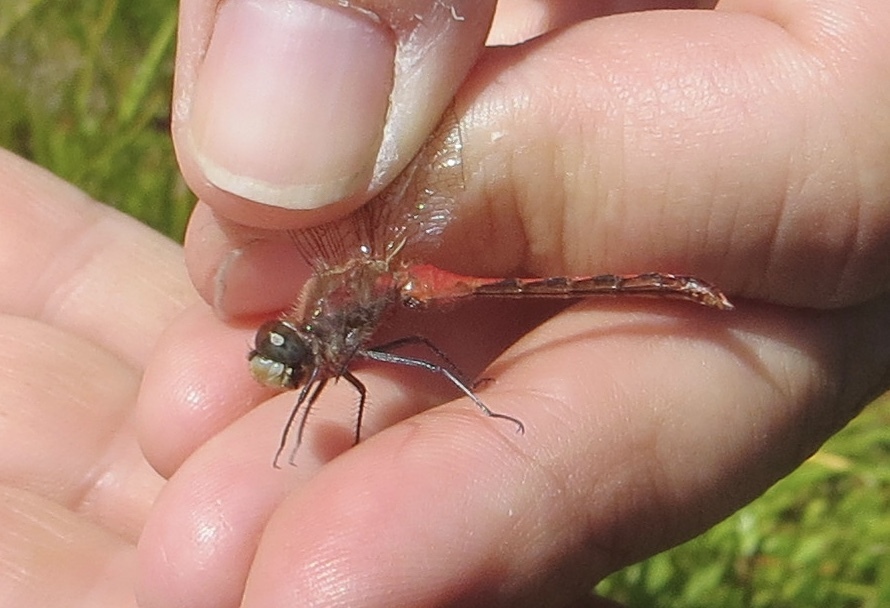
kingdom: Animalia
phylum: Arthropoda
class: Insecta
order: Odonata
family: Libellulidae
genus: Sympetrum
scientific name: Sympetrum obtrusum
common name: White-faced meadowhawk
